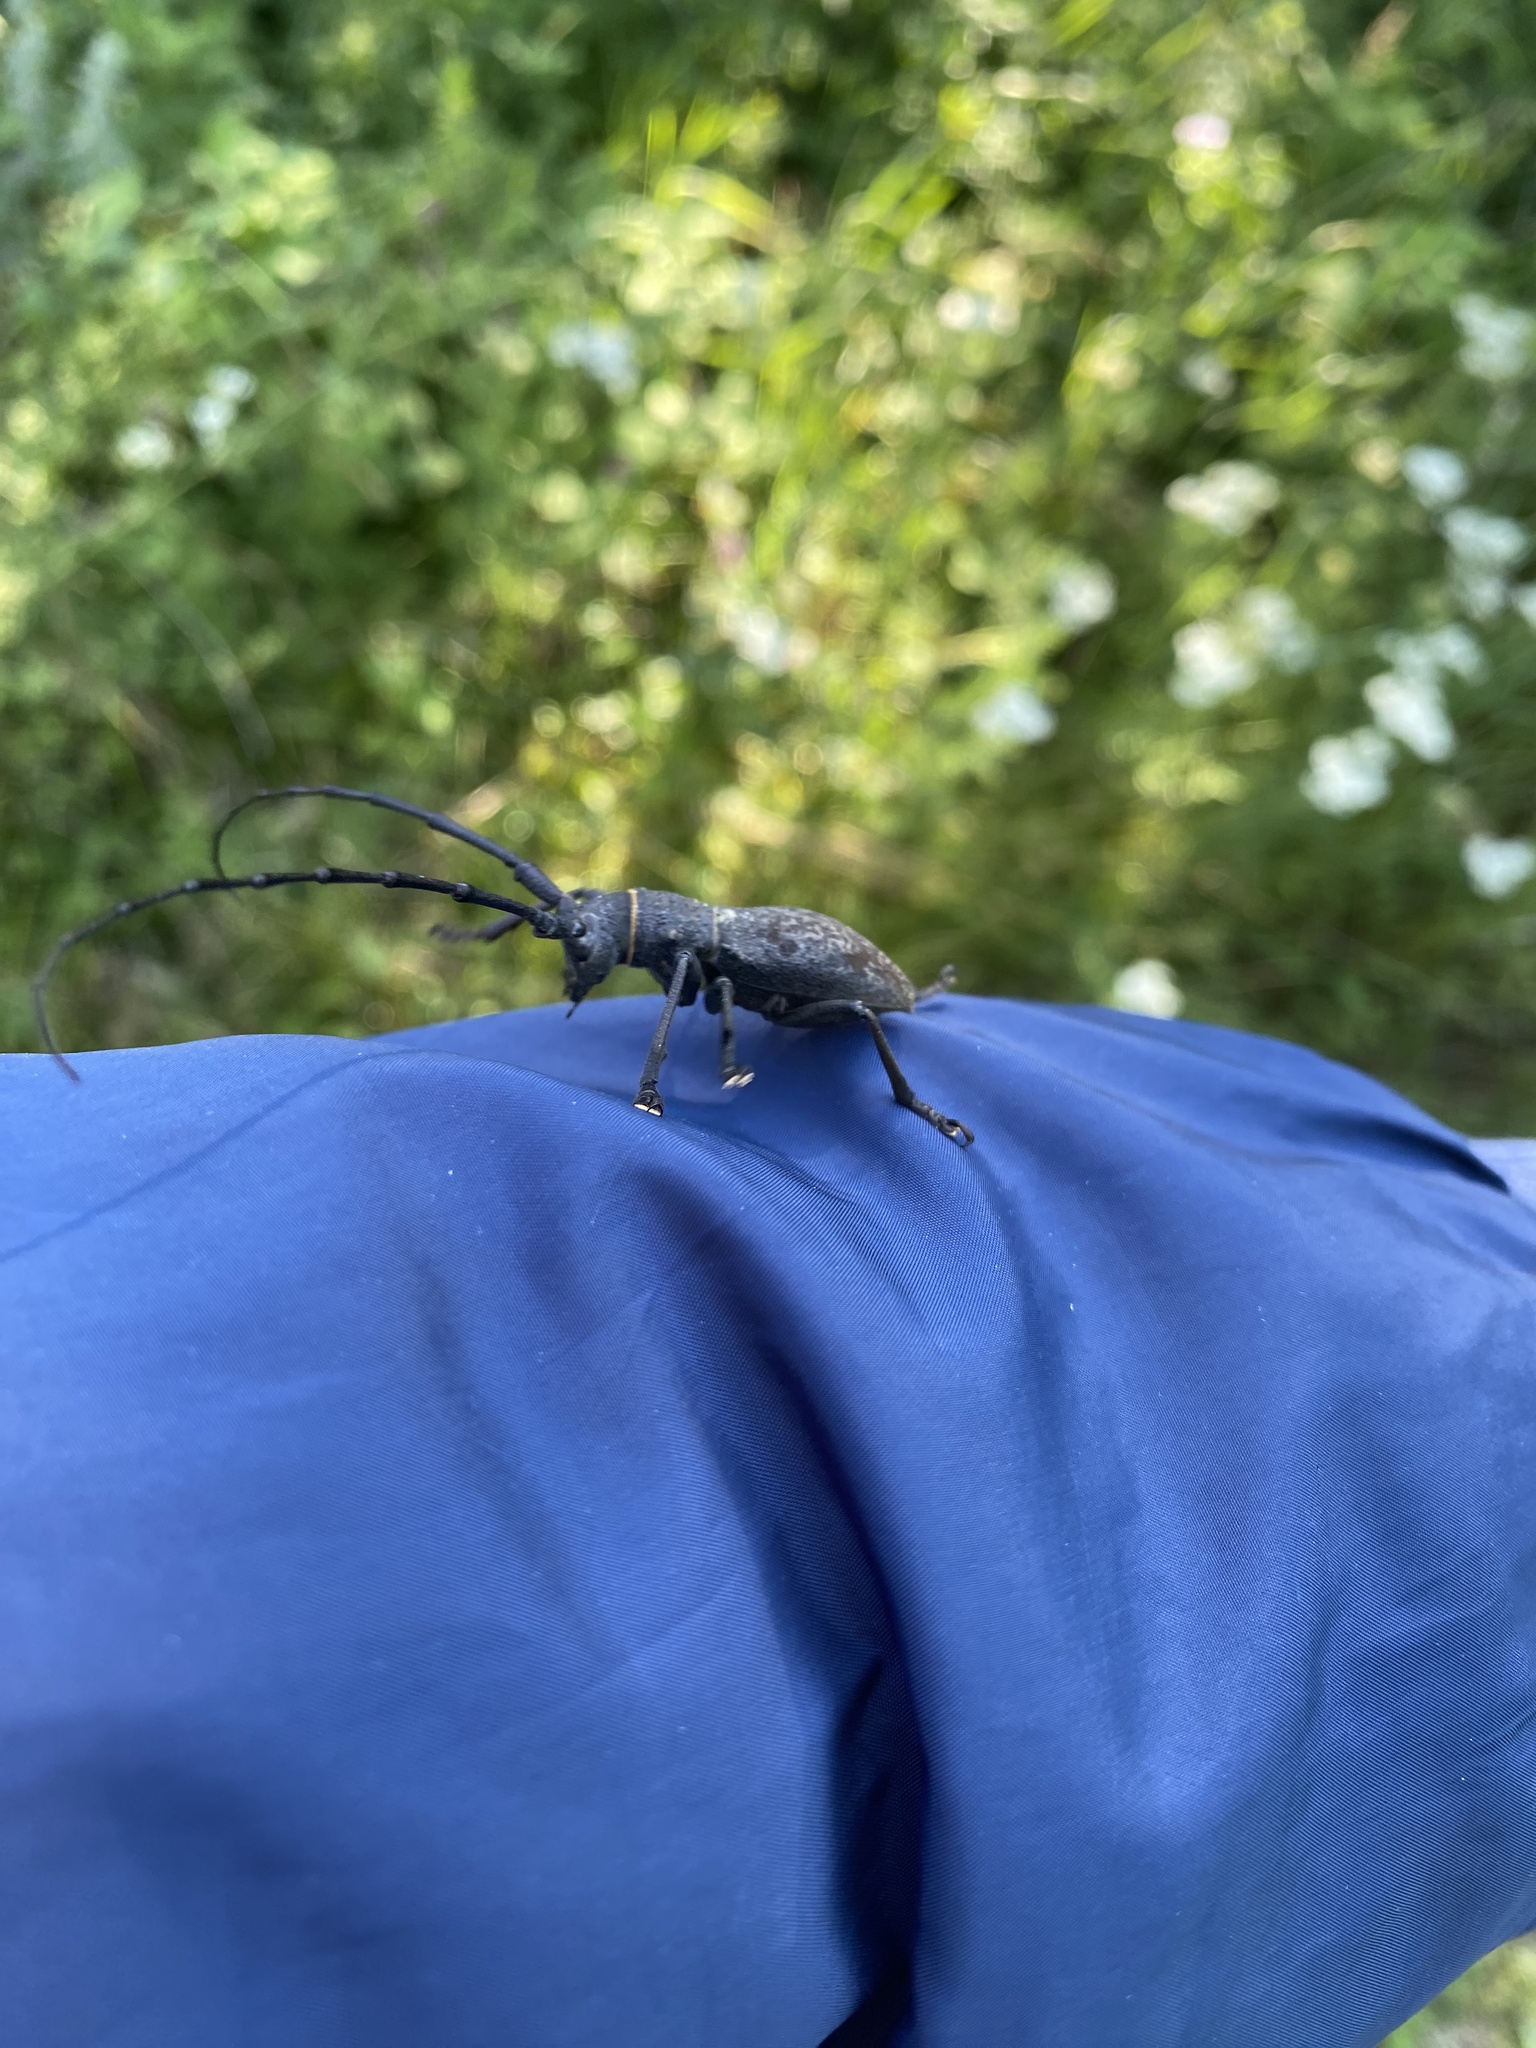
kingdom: Animalia
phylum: Arthropoda
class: Insecta
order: Coleoptera
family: Cerambycidae
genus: Morimus
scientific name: Morimus asper
